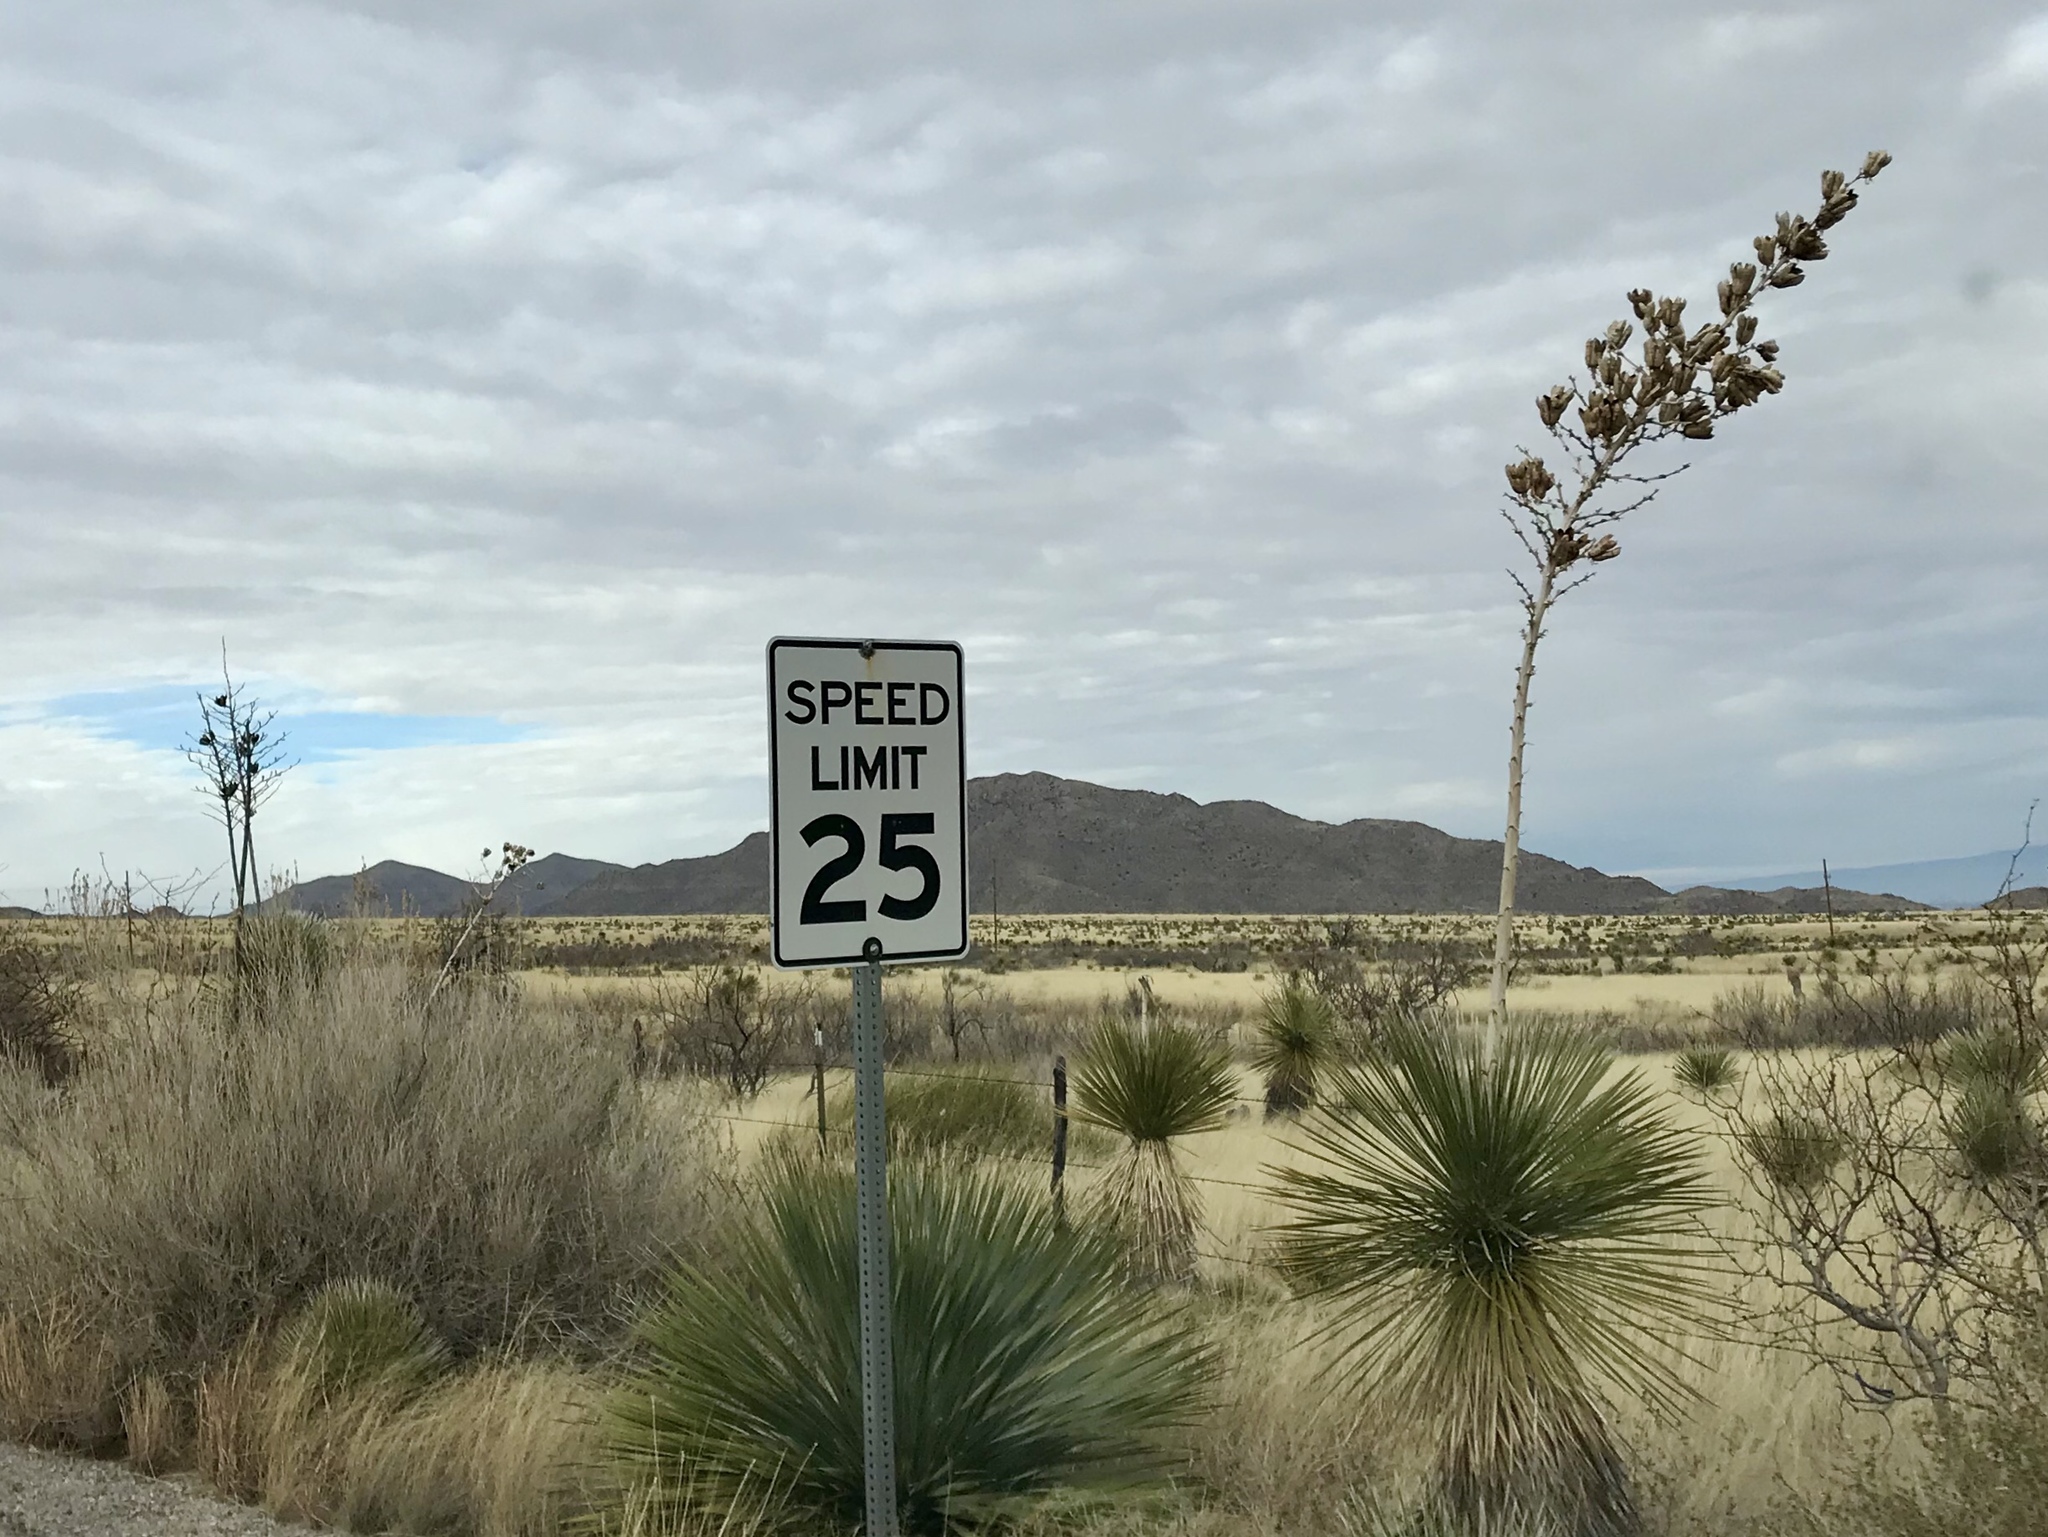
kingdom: Plantae
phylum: Tracheophyta
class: Liliopsida
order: Asparagales
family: Asparagaceae
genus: Yucca
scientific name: Yucca elata
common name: Palmella
